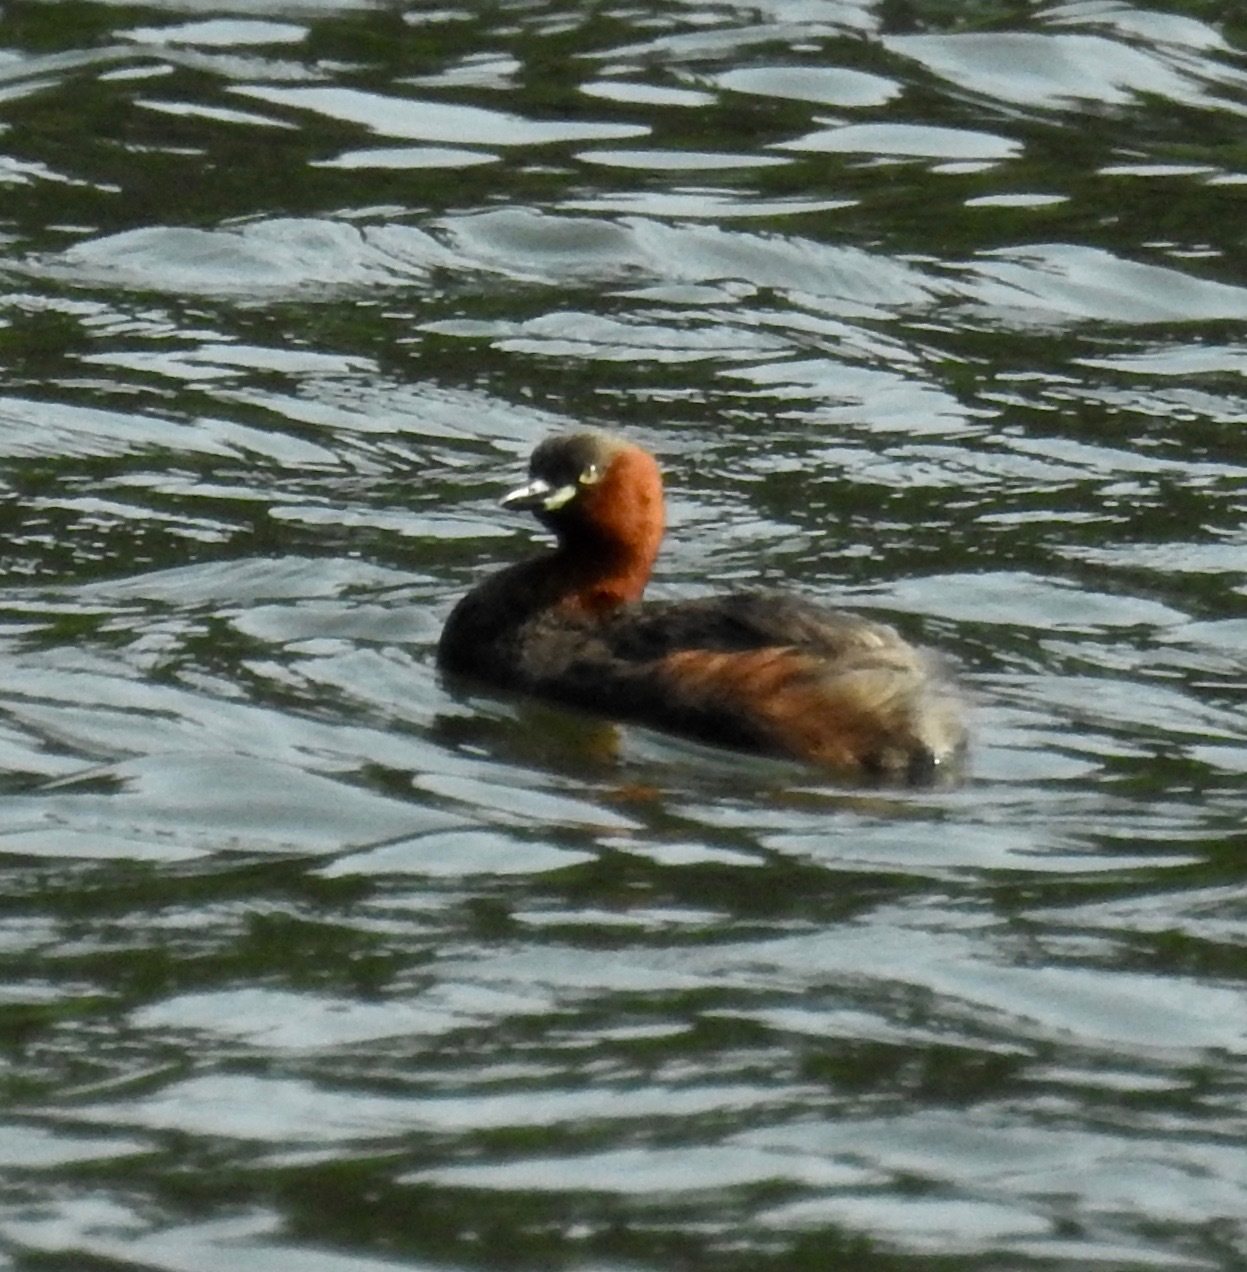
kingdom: Animalia
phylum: Chordata
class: Aves
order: Podicipediformes
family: Podicipedidae
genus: Tachybaptus
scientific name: Tachybaptus ruficollis
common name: Little grebe
